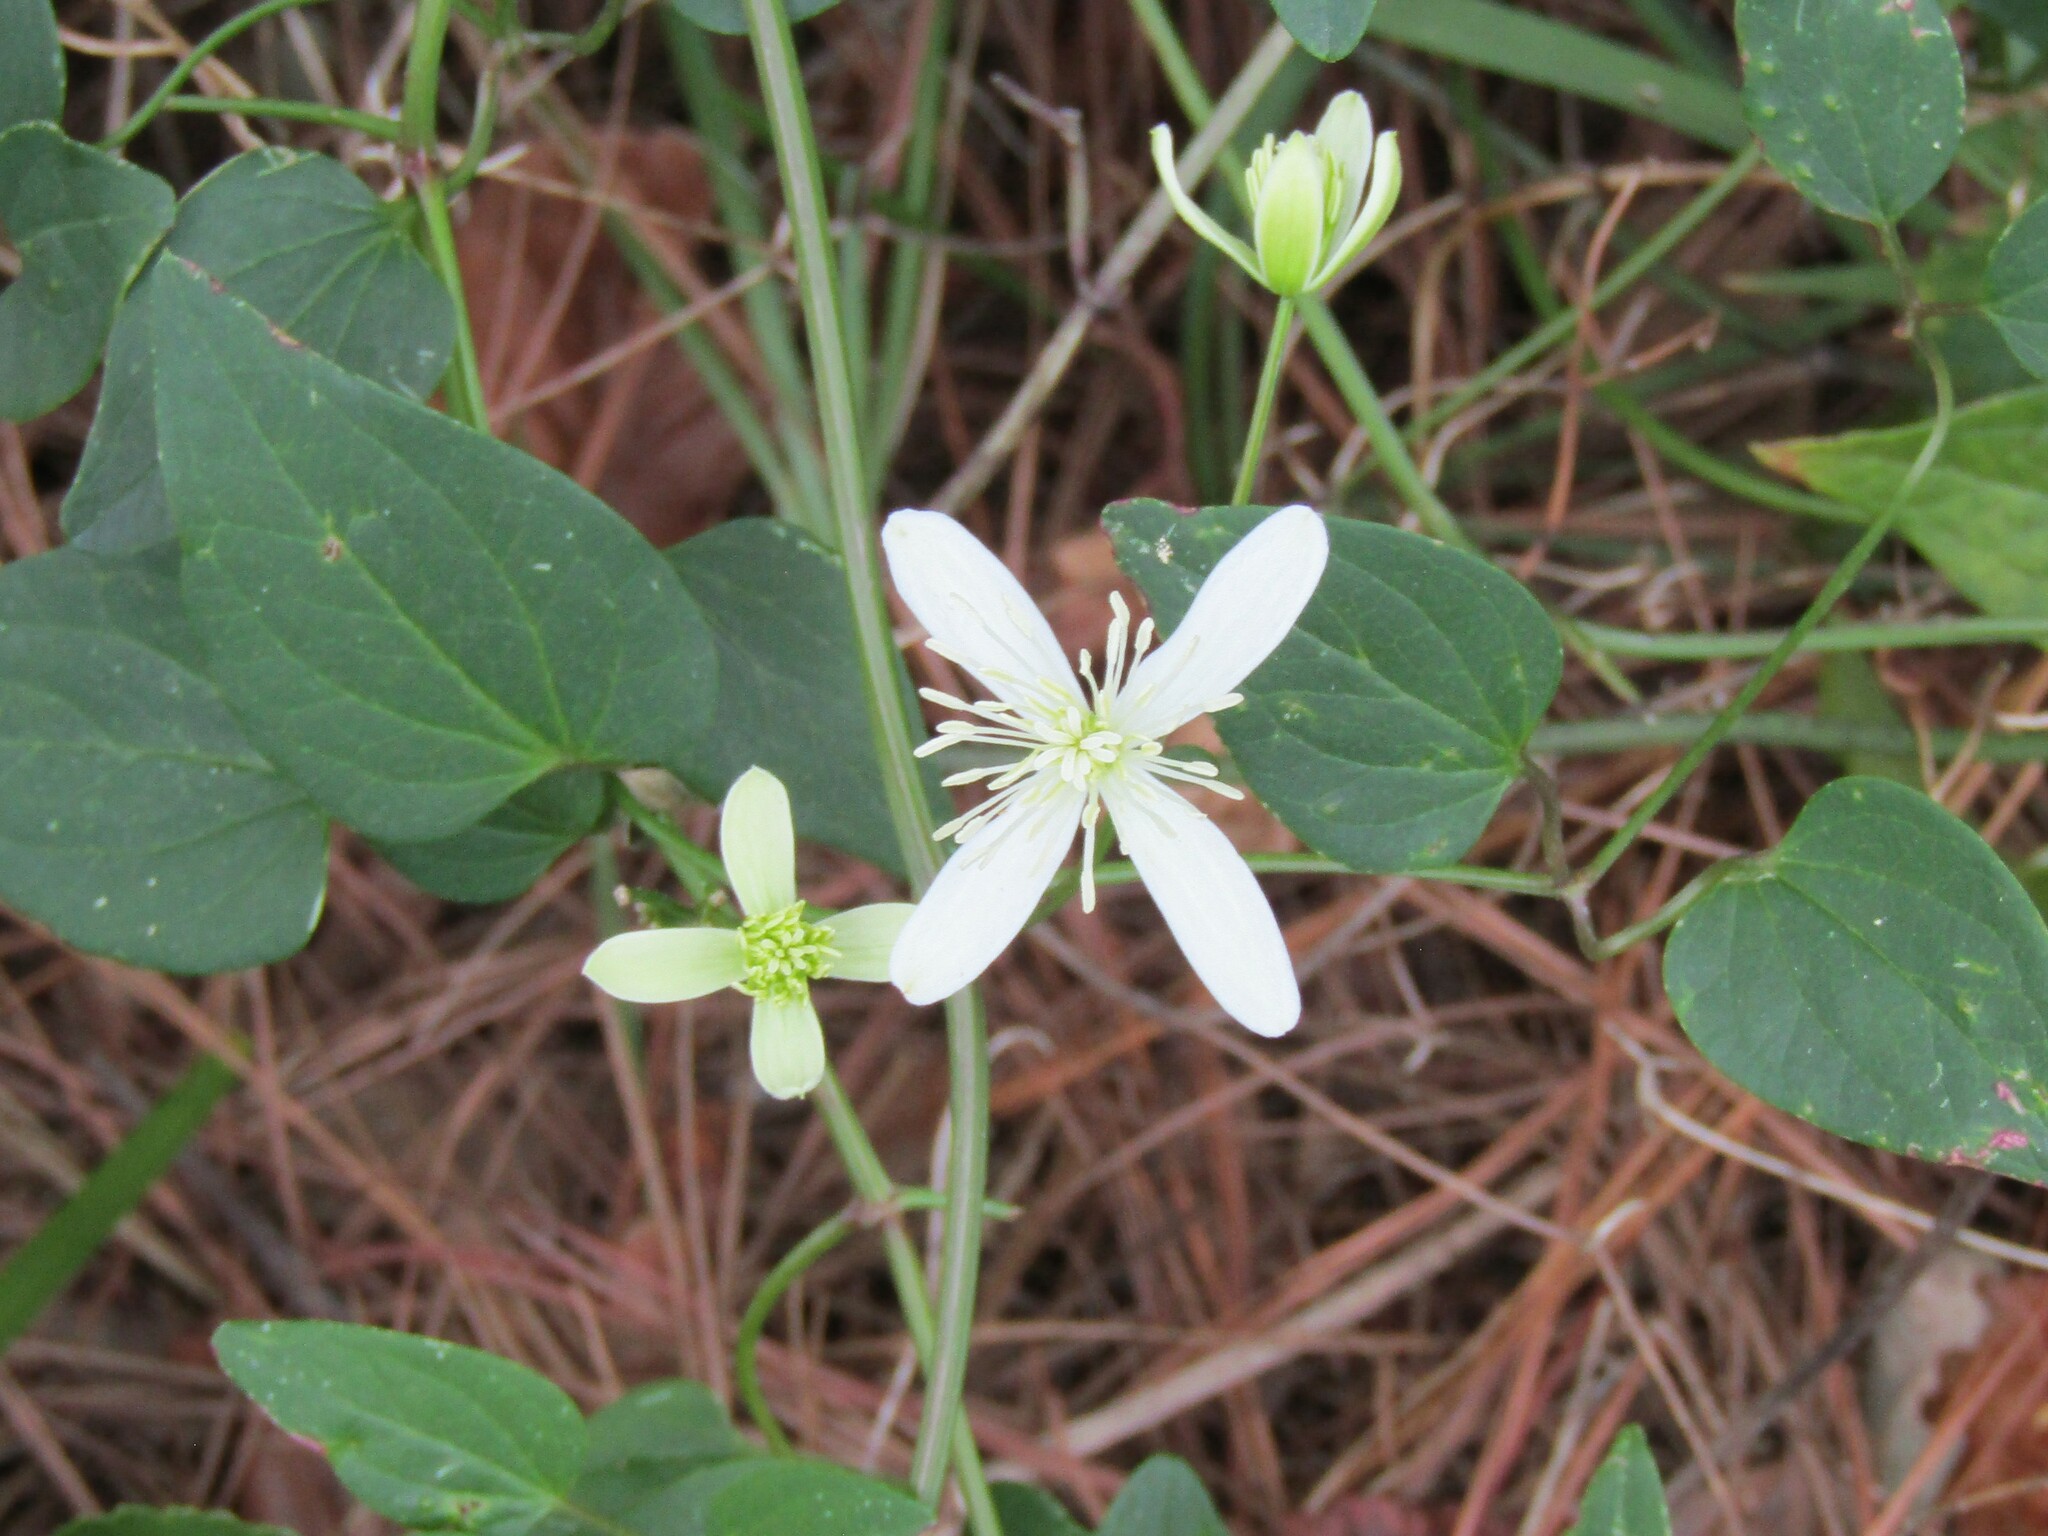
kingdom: Plantae
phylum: Tracheophyta
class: Magnoliopsida
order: Ranunculales
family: Ranunculaceae
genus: Clematis
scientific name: Clematis terniflora
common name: Sweet autumn clematis
